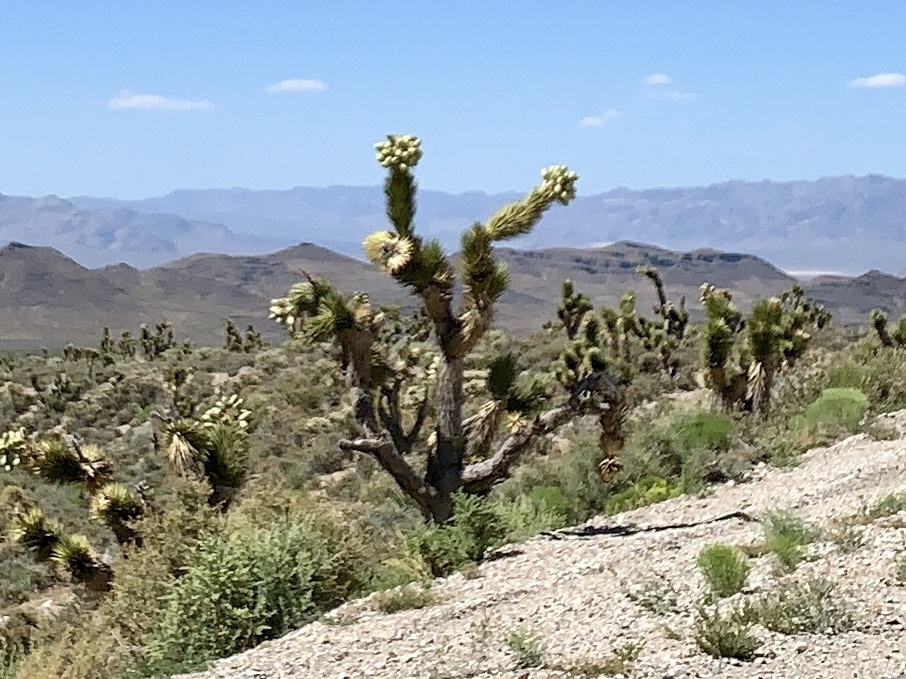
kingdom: Plantae
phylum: Tracheophyta
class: Liliopsida
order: Asparagales
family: Asparagaceae
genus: Yucca
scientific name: Yucca brevifolia
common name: Joshua tree
